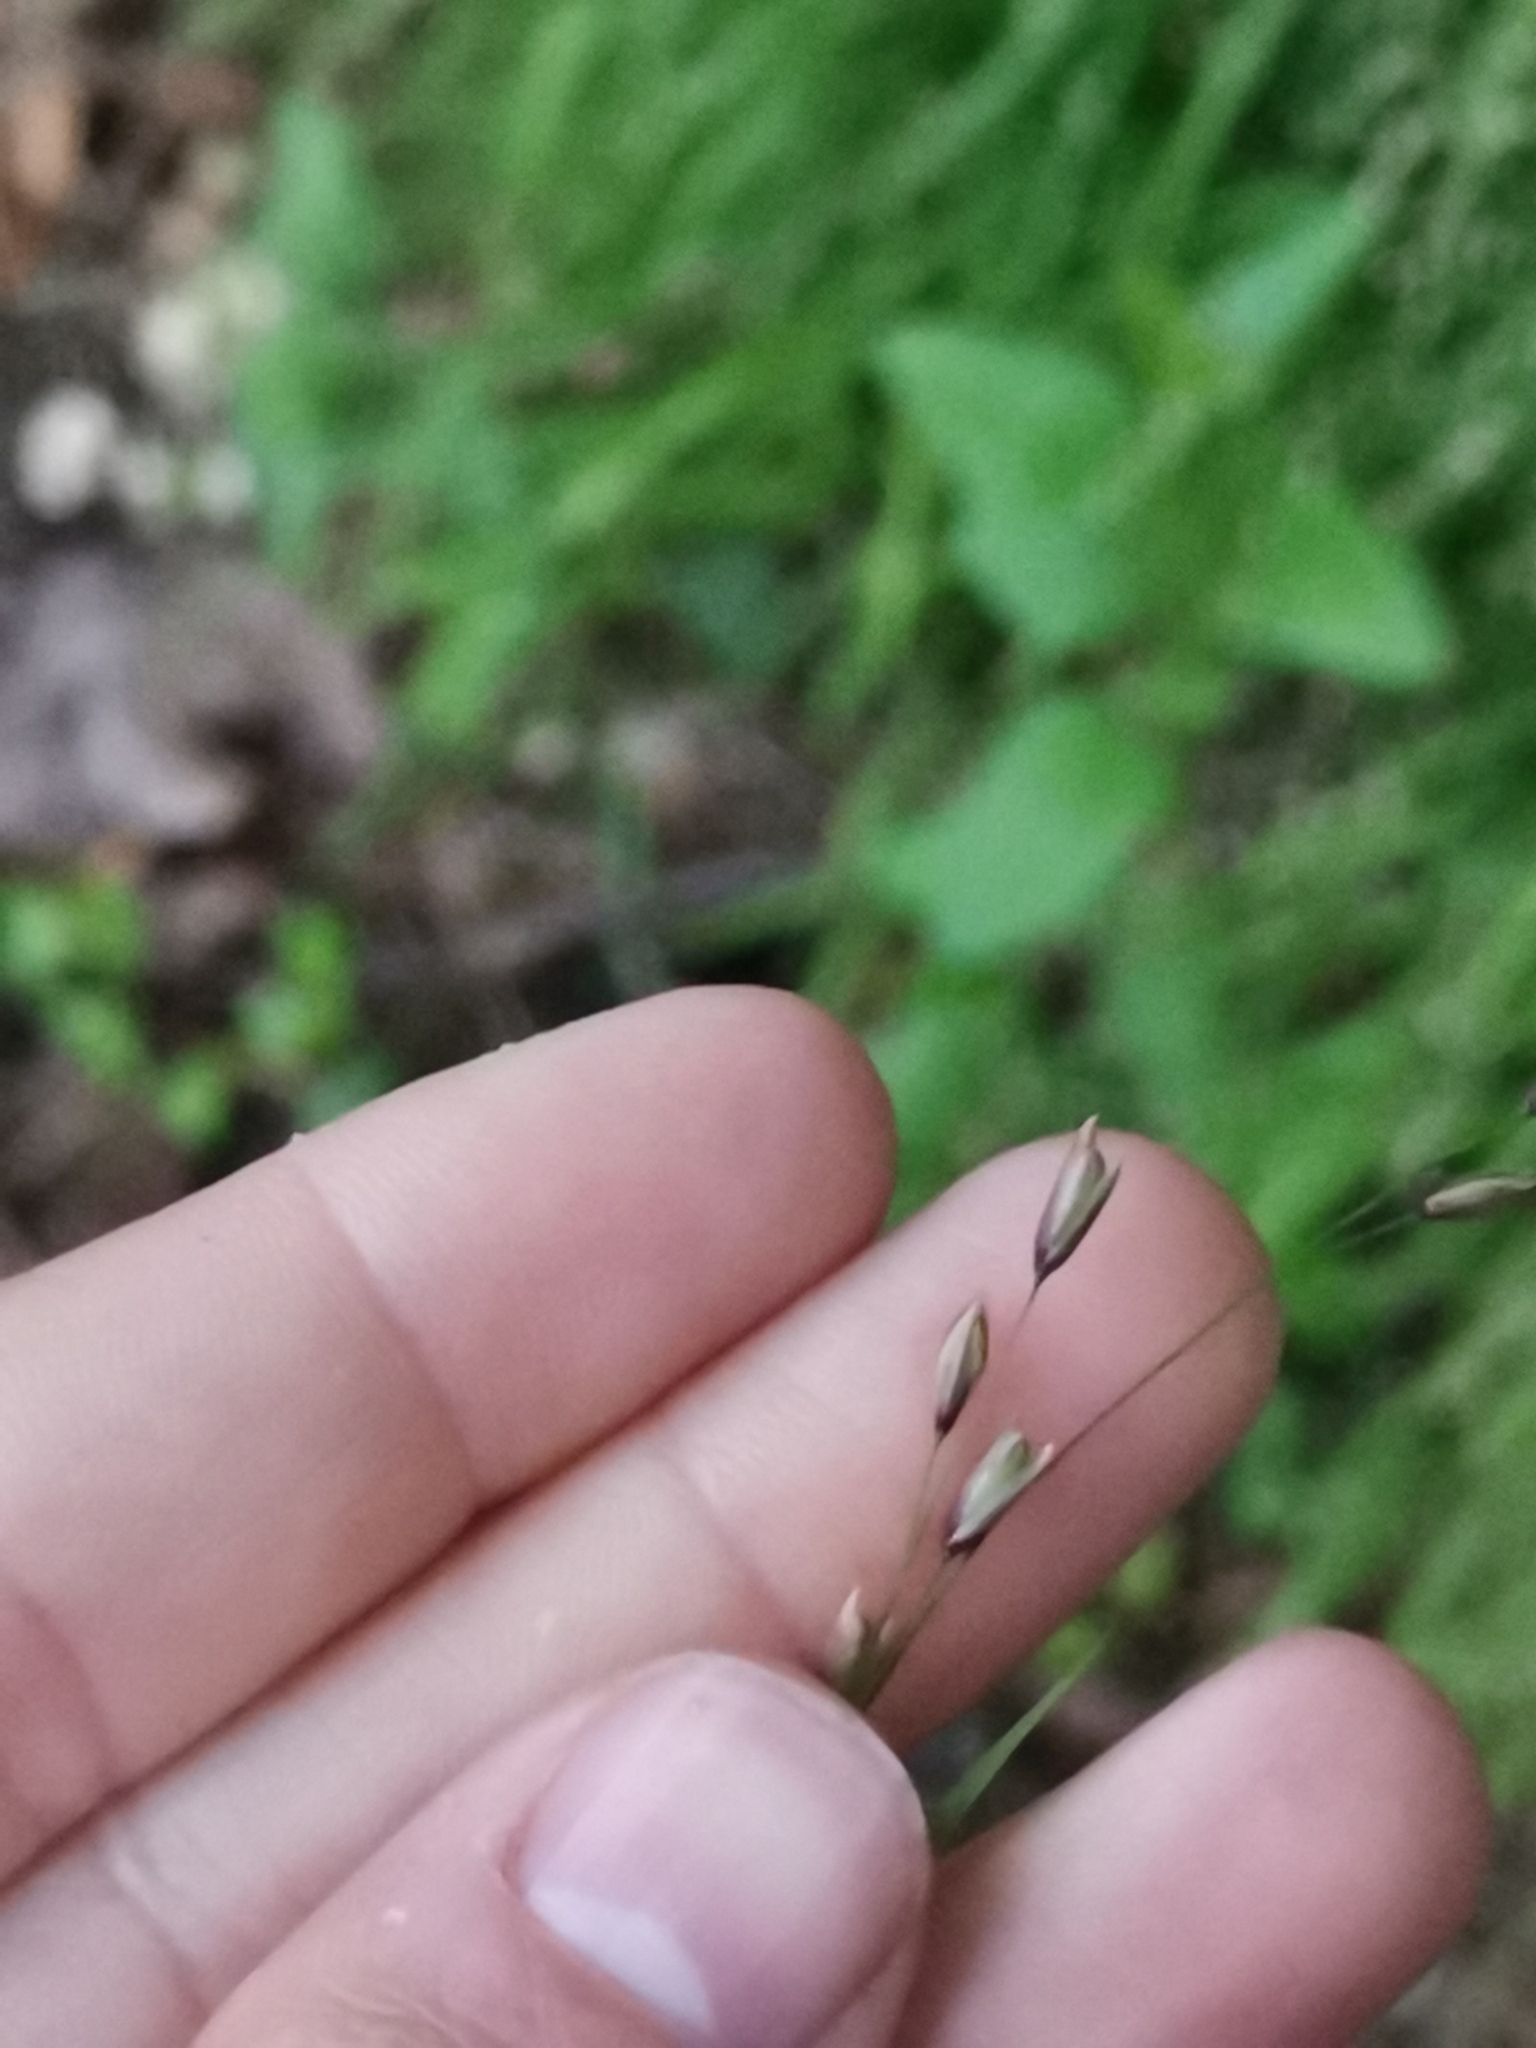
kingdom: Plantae
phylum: Tracheophyta
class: Liliopsida
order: Poales
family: Poaceae
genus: Melica
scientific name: Melica uniflora
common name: Wood melick
